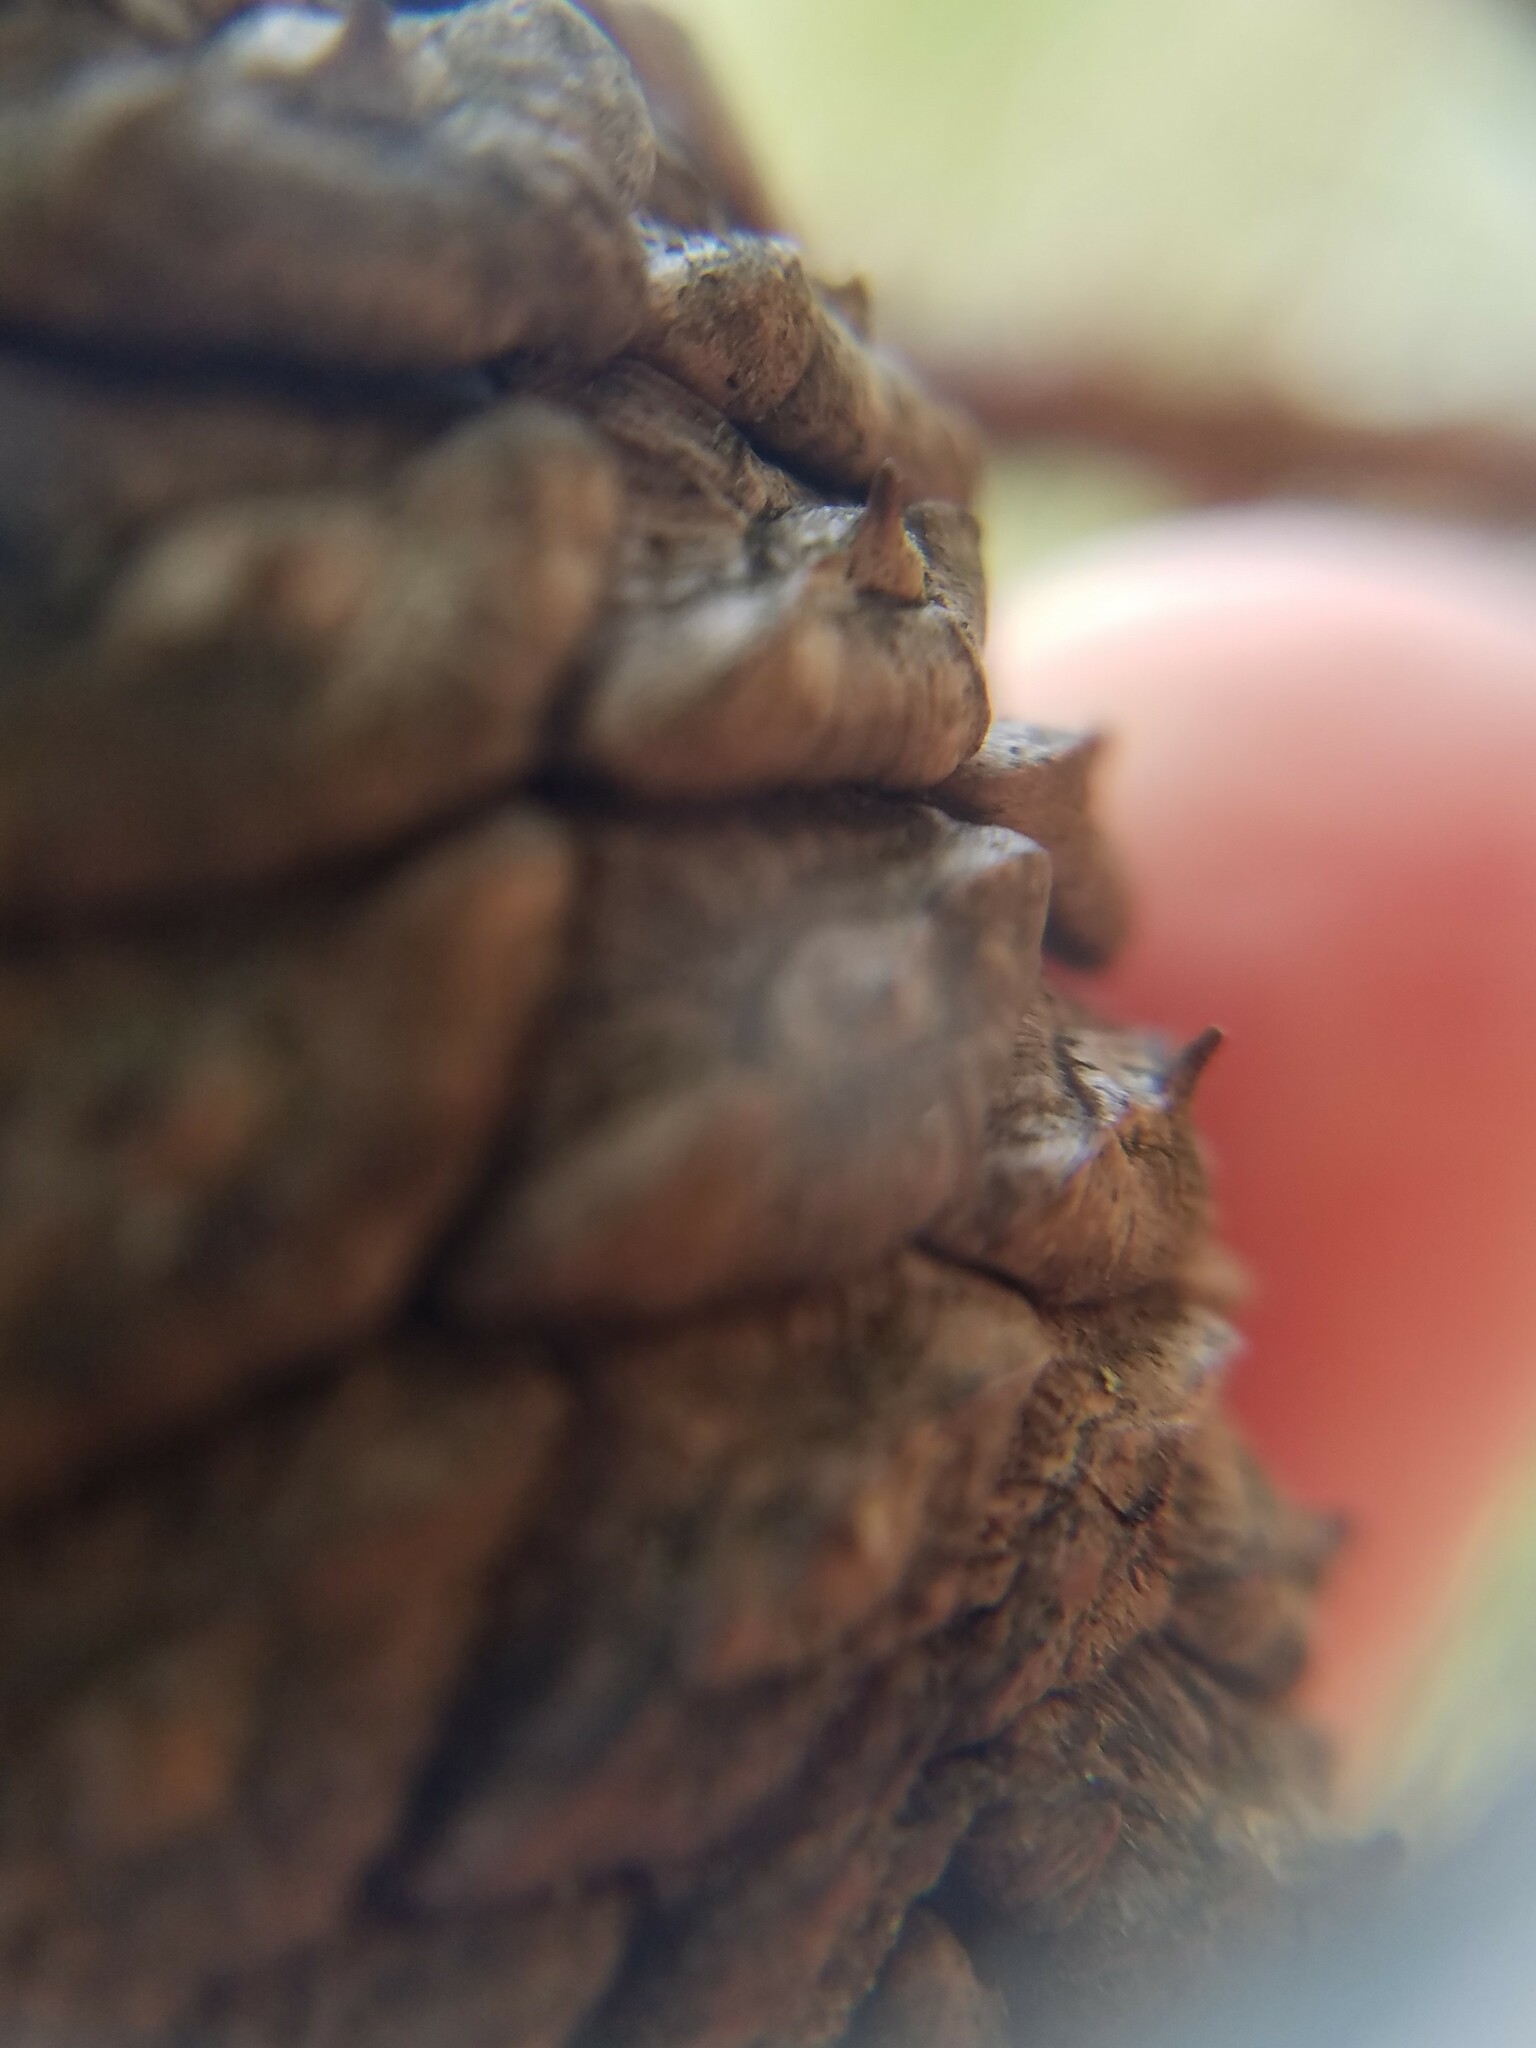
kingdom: Plantae
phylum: Tracheophyta
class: Pinopsida
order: Pinales
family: Pinaceae
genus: Pinus
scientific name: Pinus rigida
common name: Pitch pine
